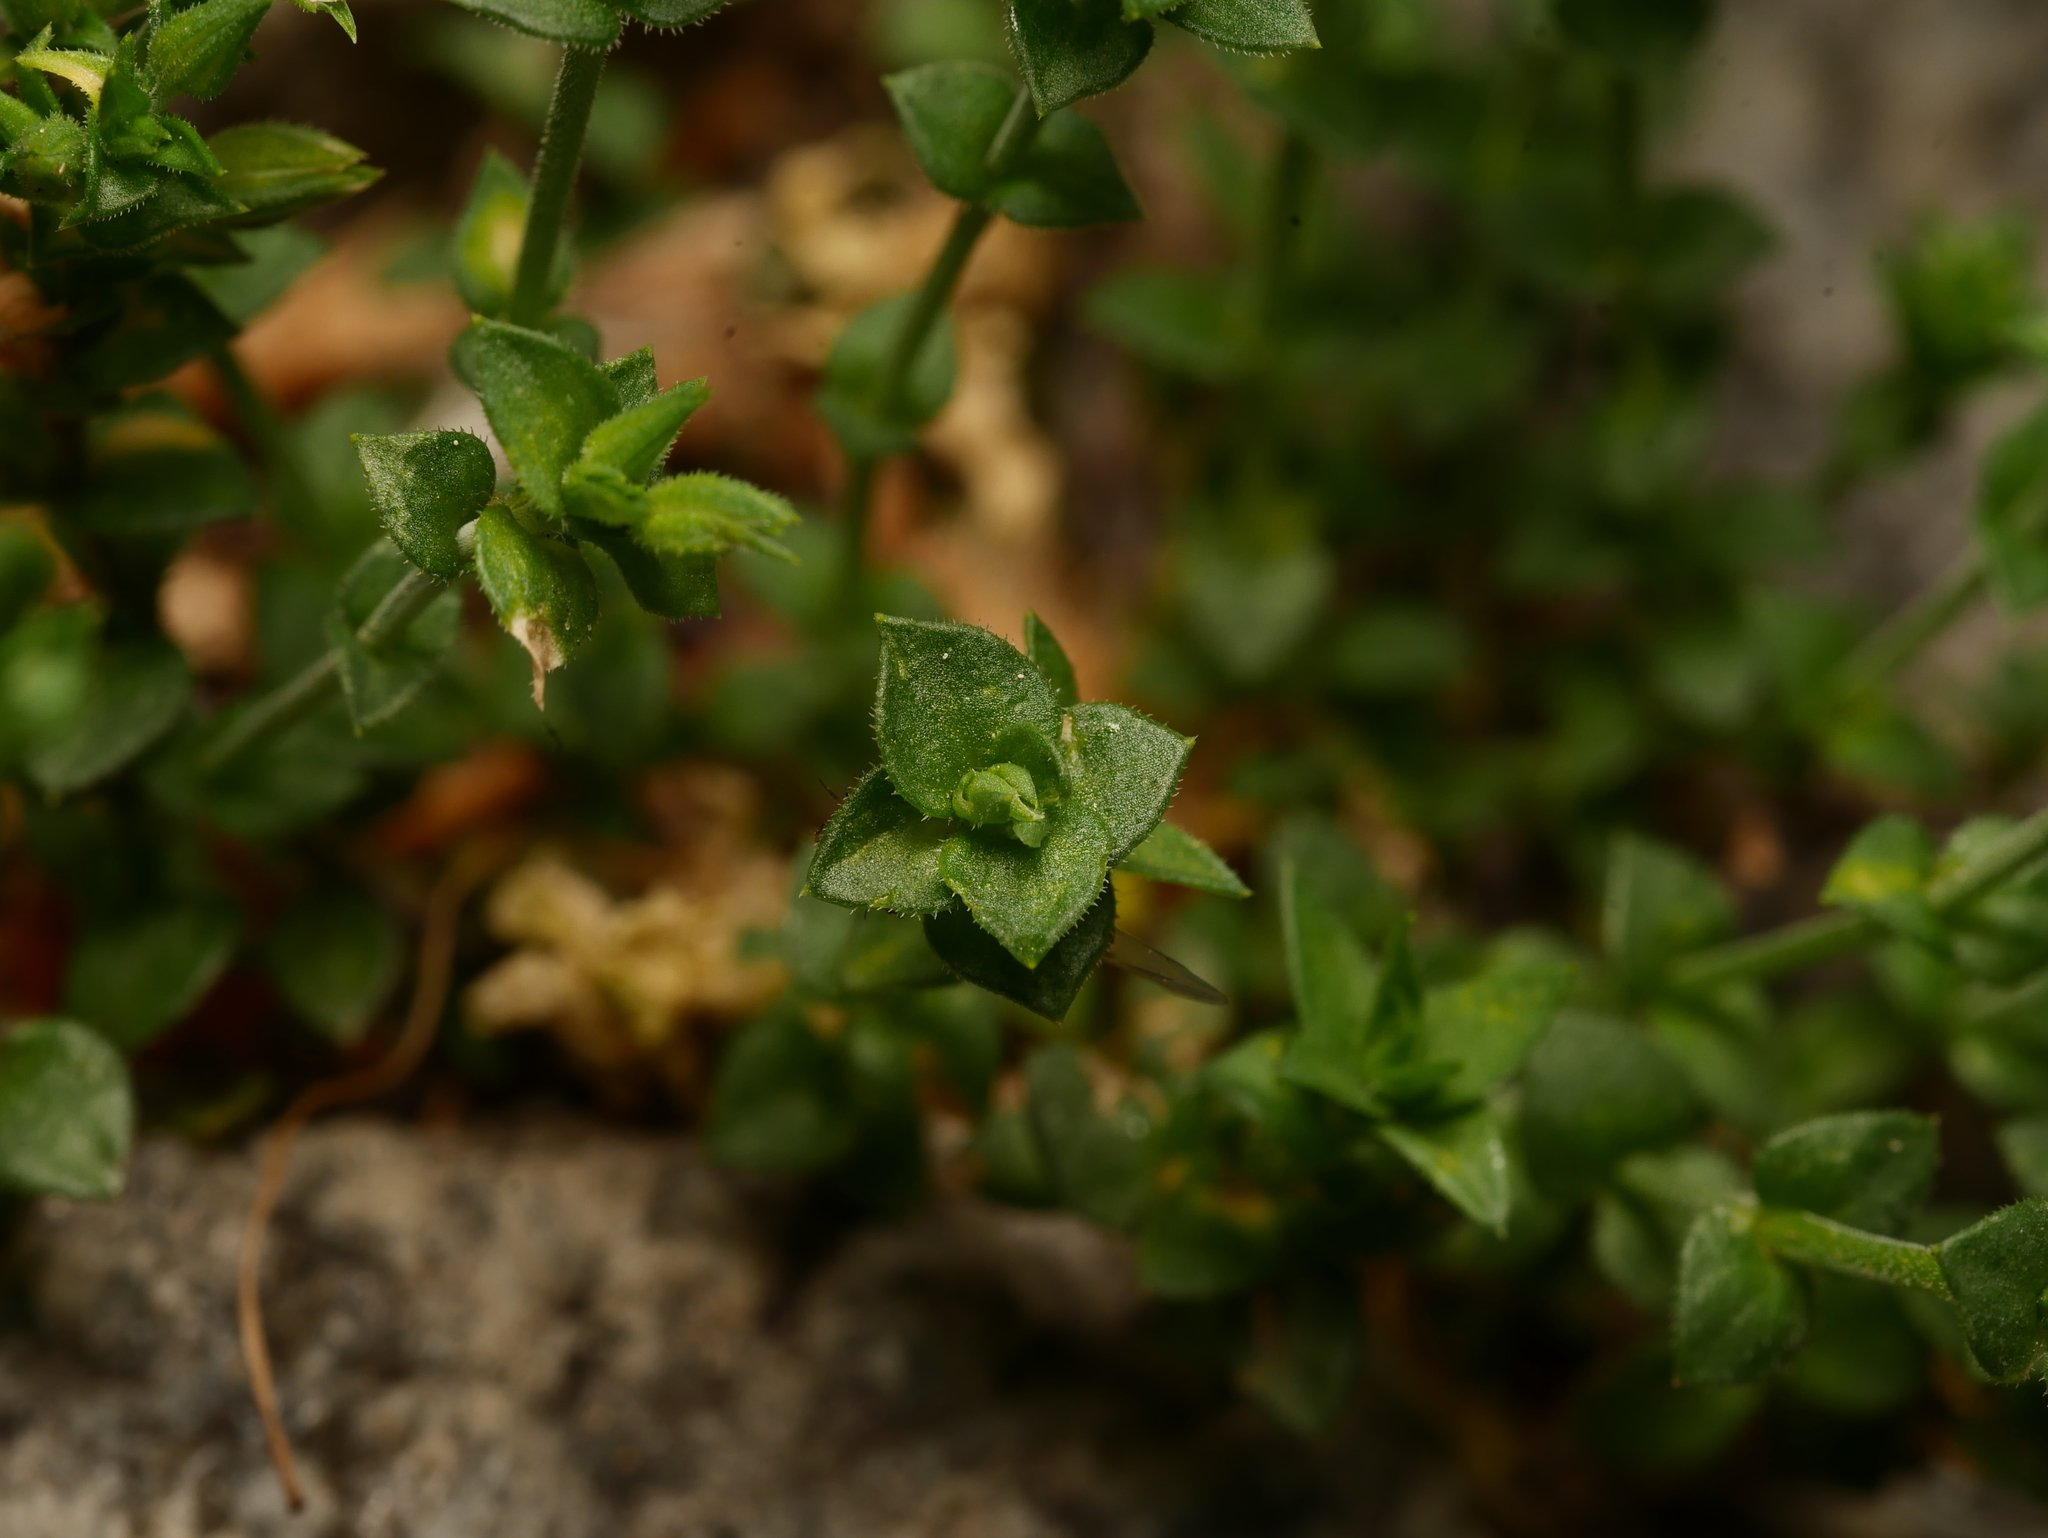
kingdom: Plantae
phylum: Tracheophyta
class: Magnoliopsida
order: Caryophyllales
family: Caryophyllaceae
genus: Arenaria
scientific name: Arenaria serpyllifolia
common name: Thyme-leaved sandwort
